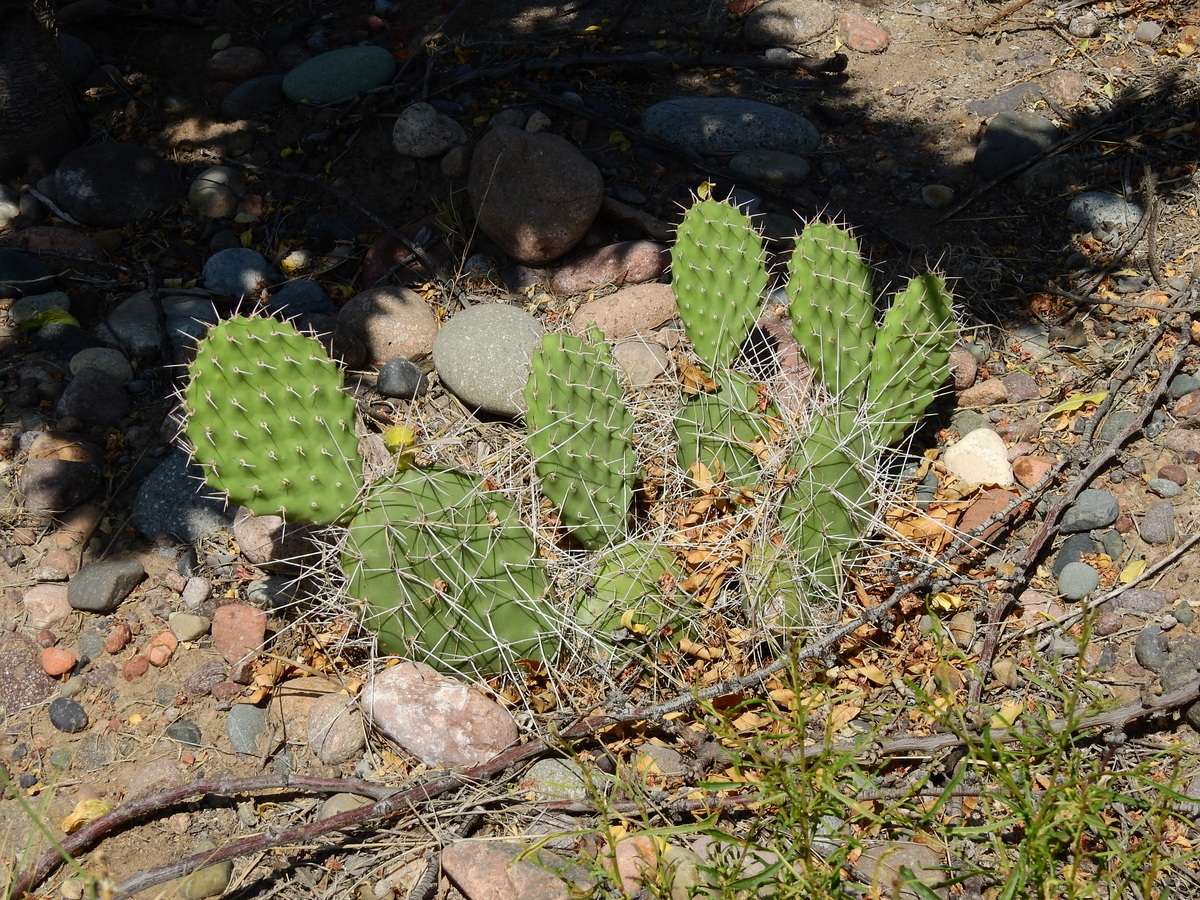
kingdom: Plantae
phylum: Tracheophyta
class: Magnoliopsida
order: Caryophyllales
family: Cactaceae
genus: Opuntia
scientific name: Opuntia sulphurea
